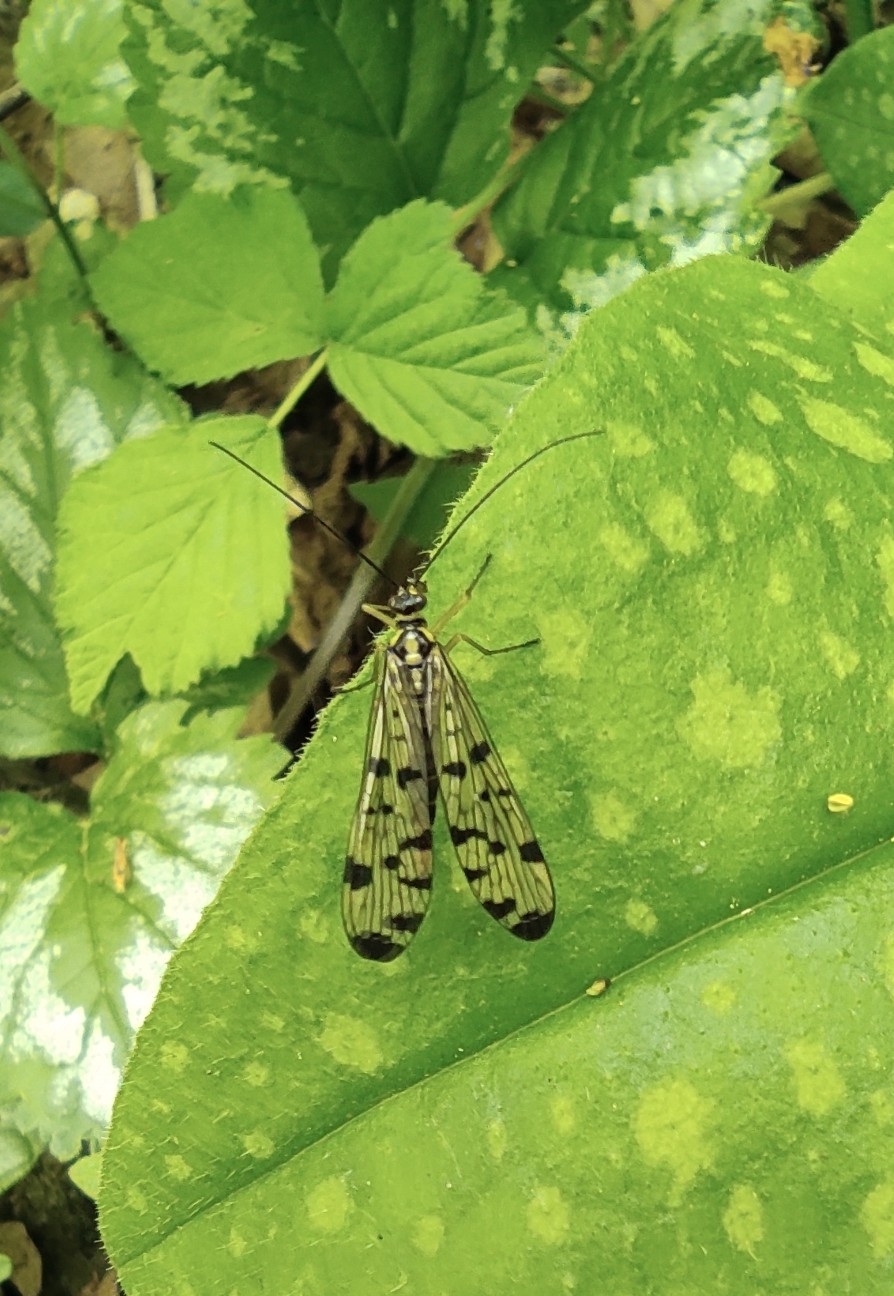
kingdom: Animalia
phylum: Arthropoda
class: Insecta
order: Mecoptera
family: Panorpidae
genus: Panorpa
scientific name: Panorpa germanica
